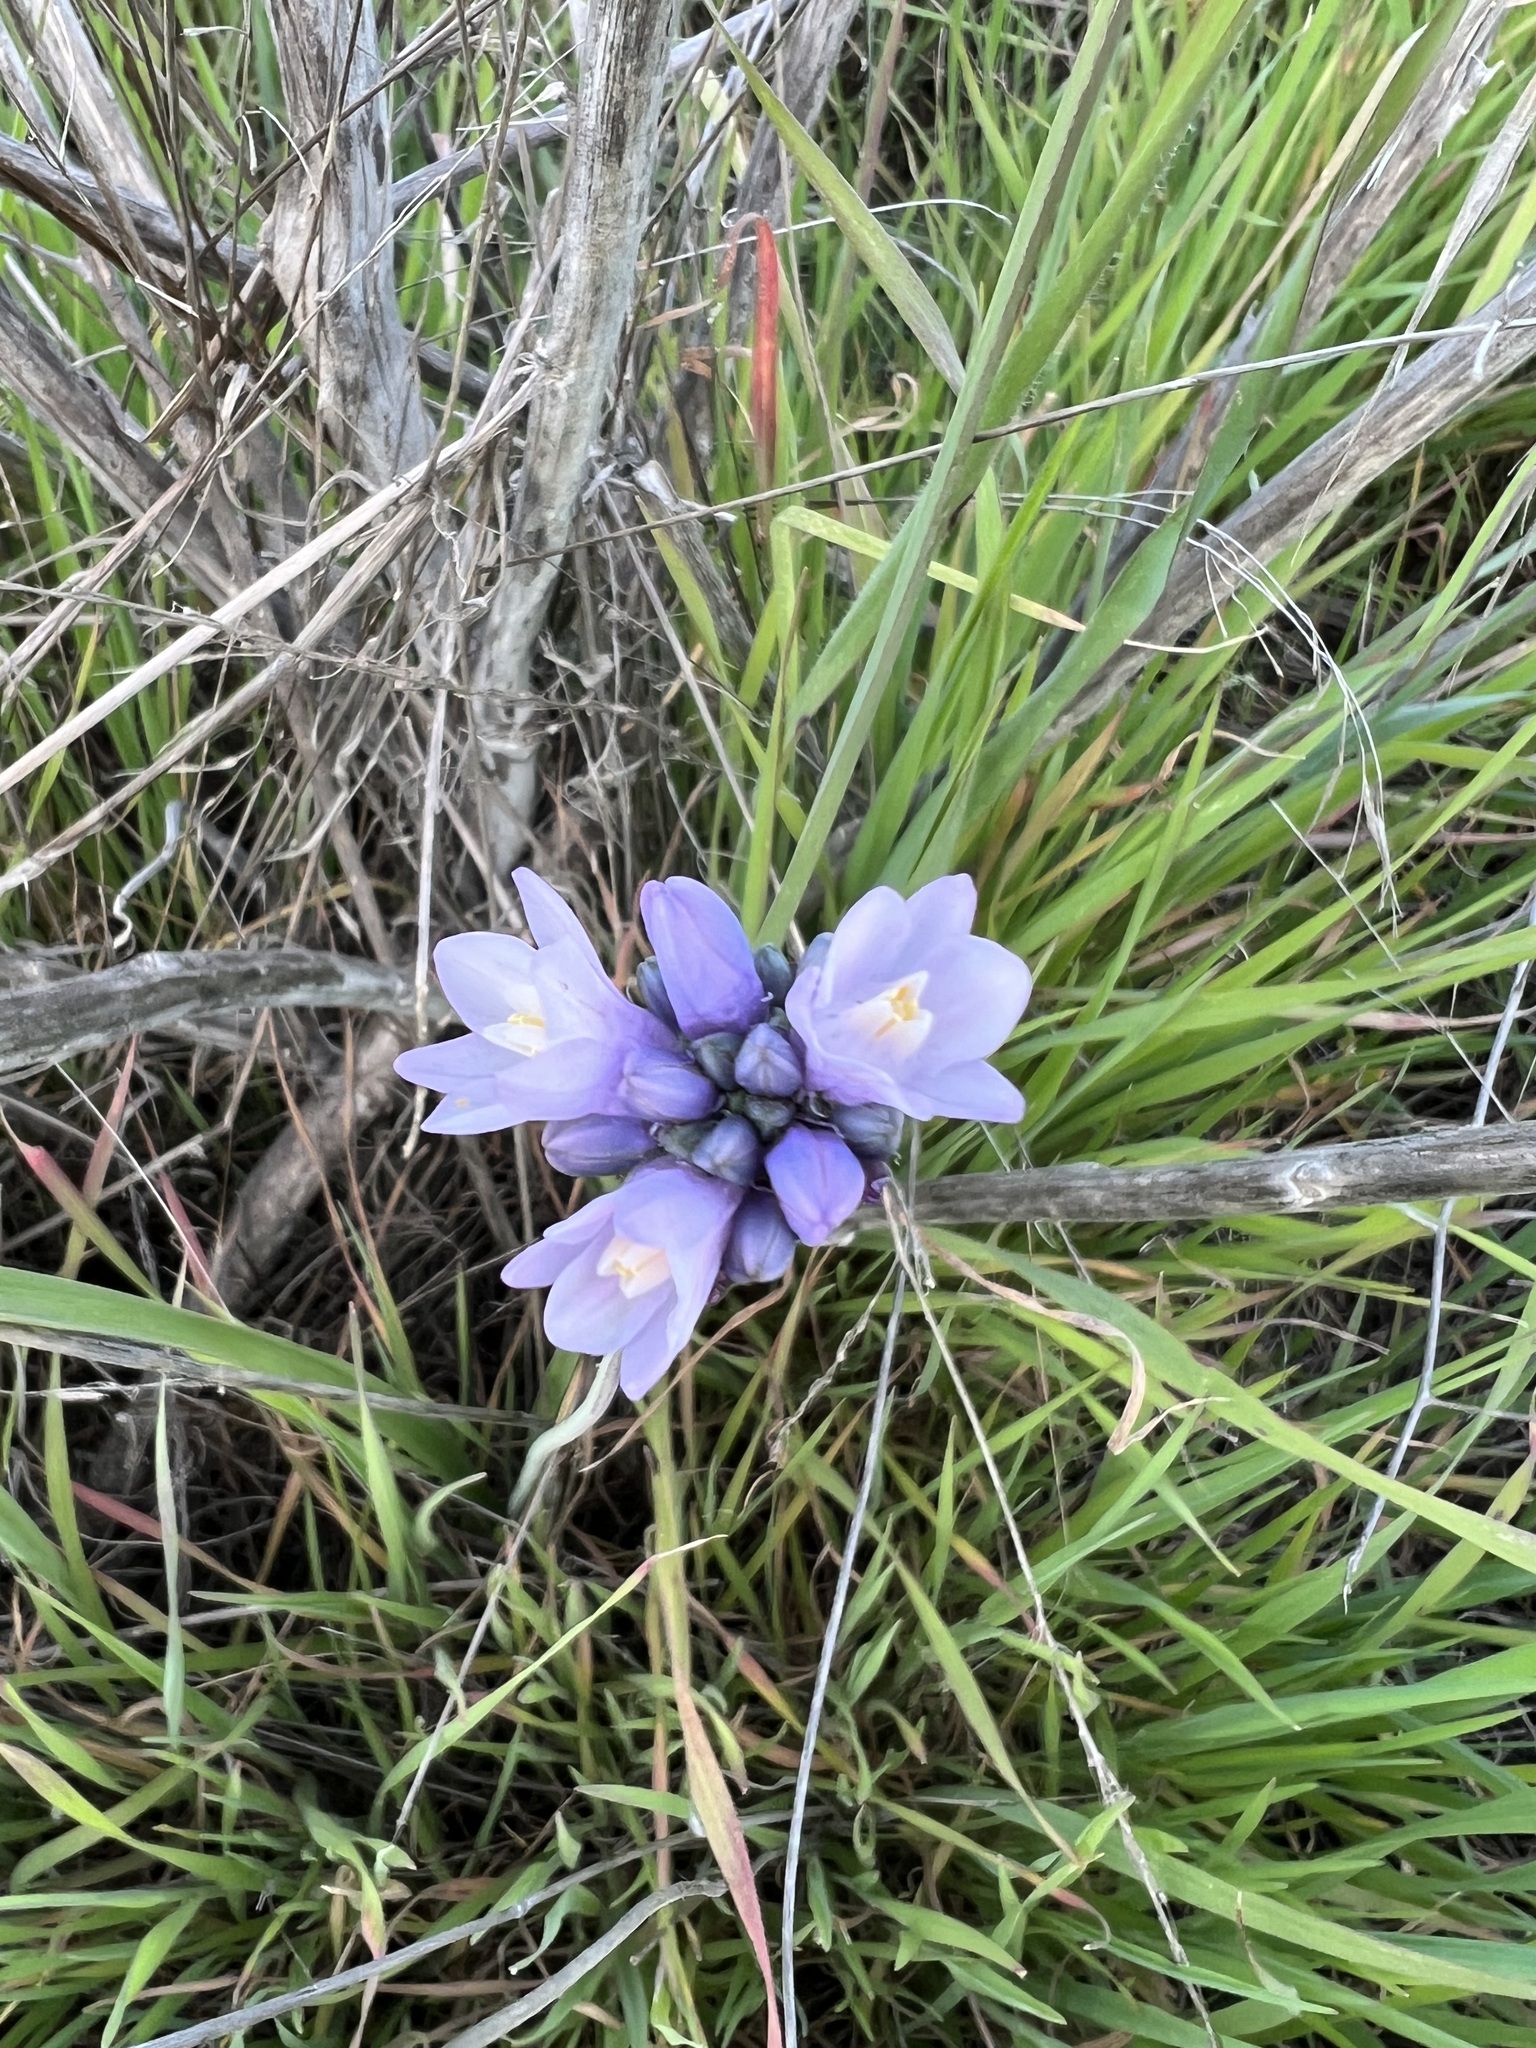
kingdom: Plantae
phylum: Tracheophyta
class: Liliopsida
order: Asparagales
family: Asparagaceae
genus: Dipterostemon
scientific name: Dipterostemon capitatus
